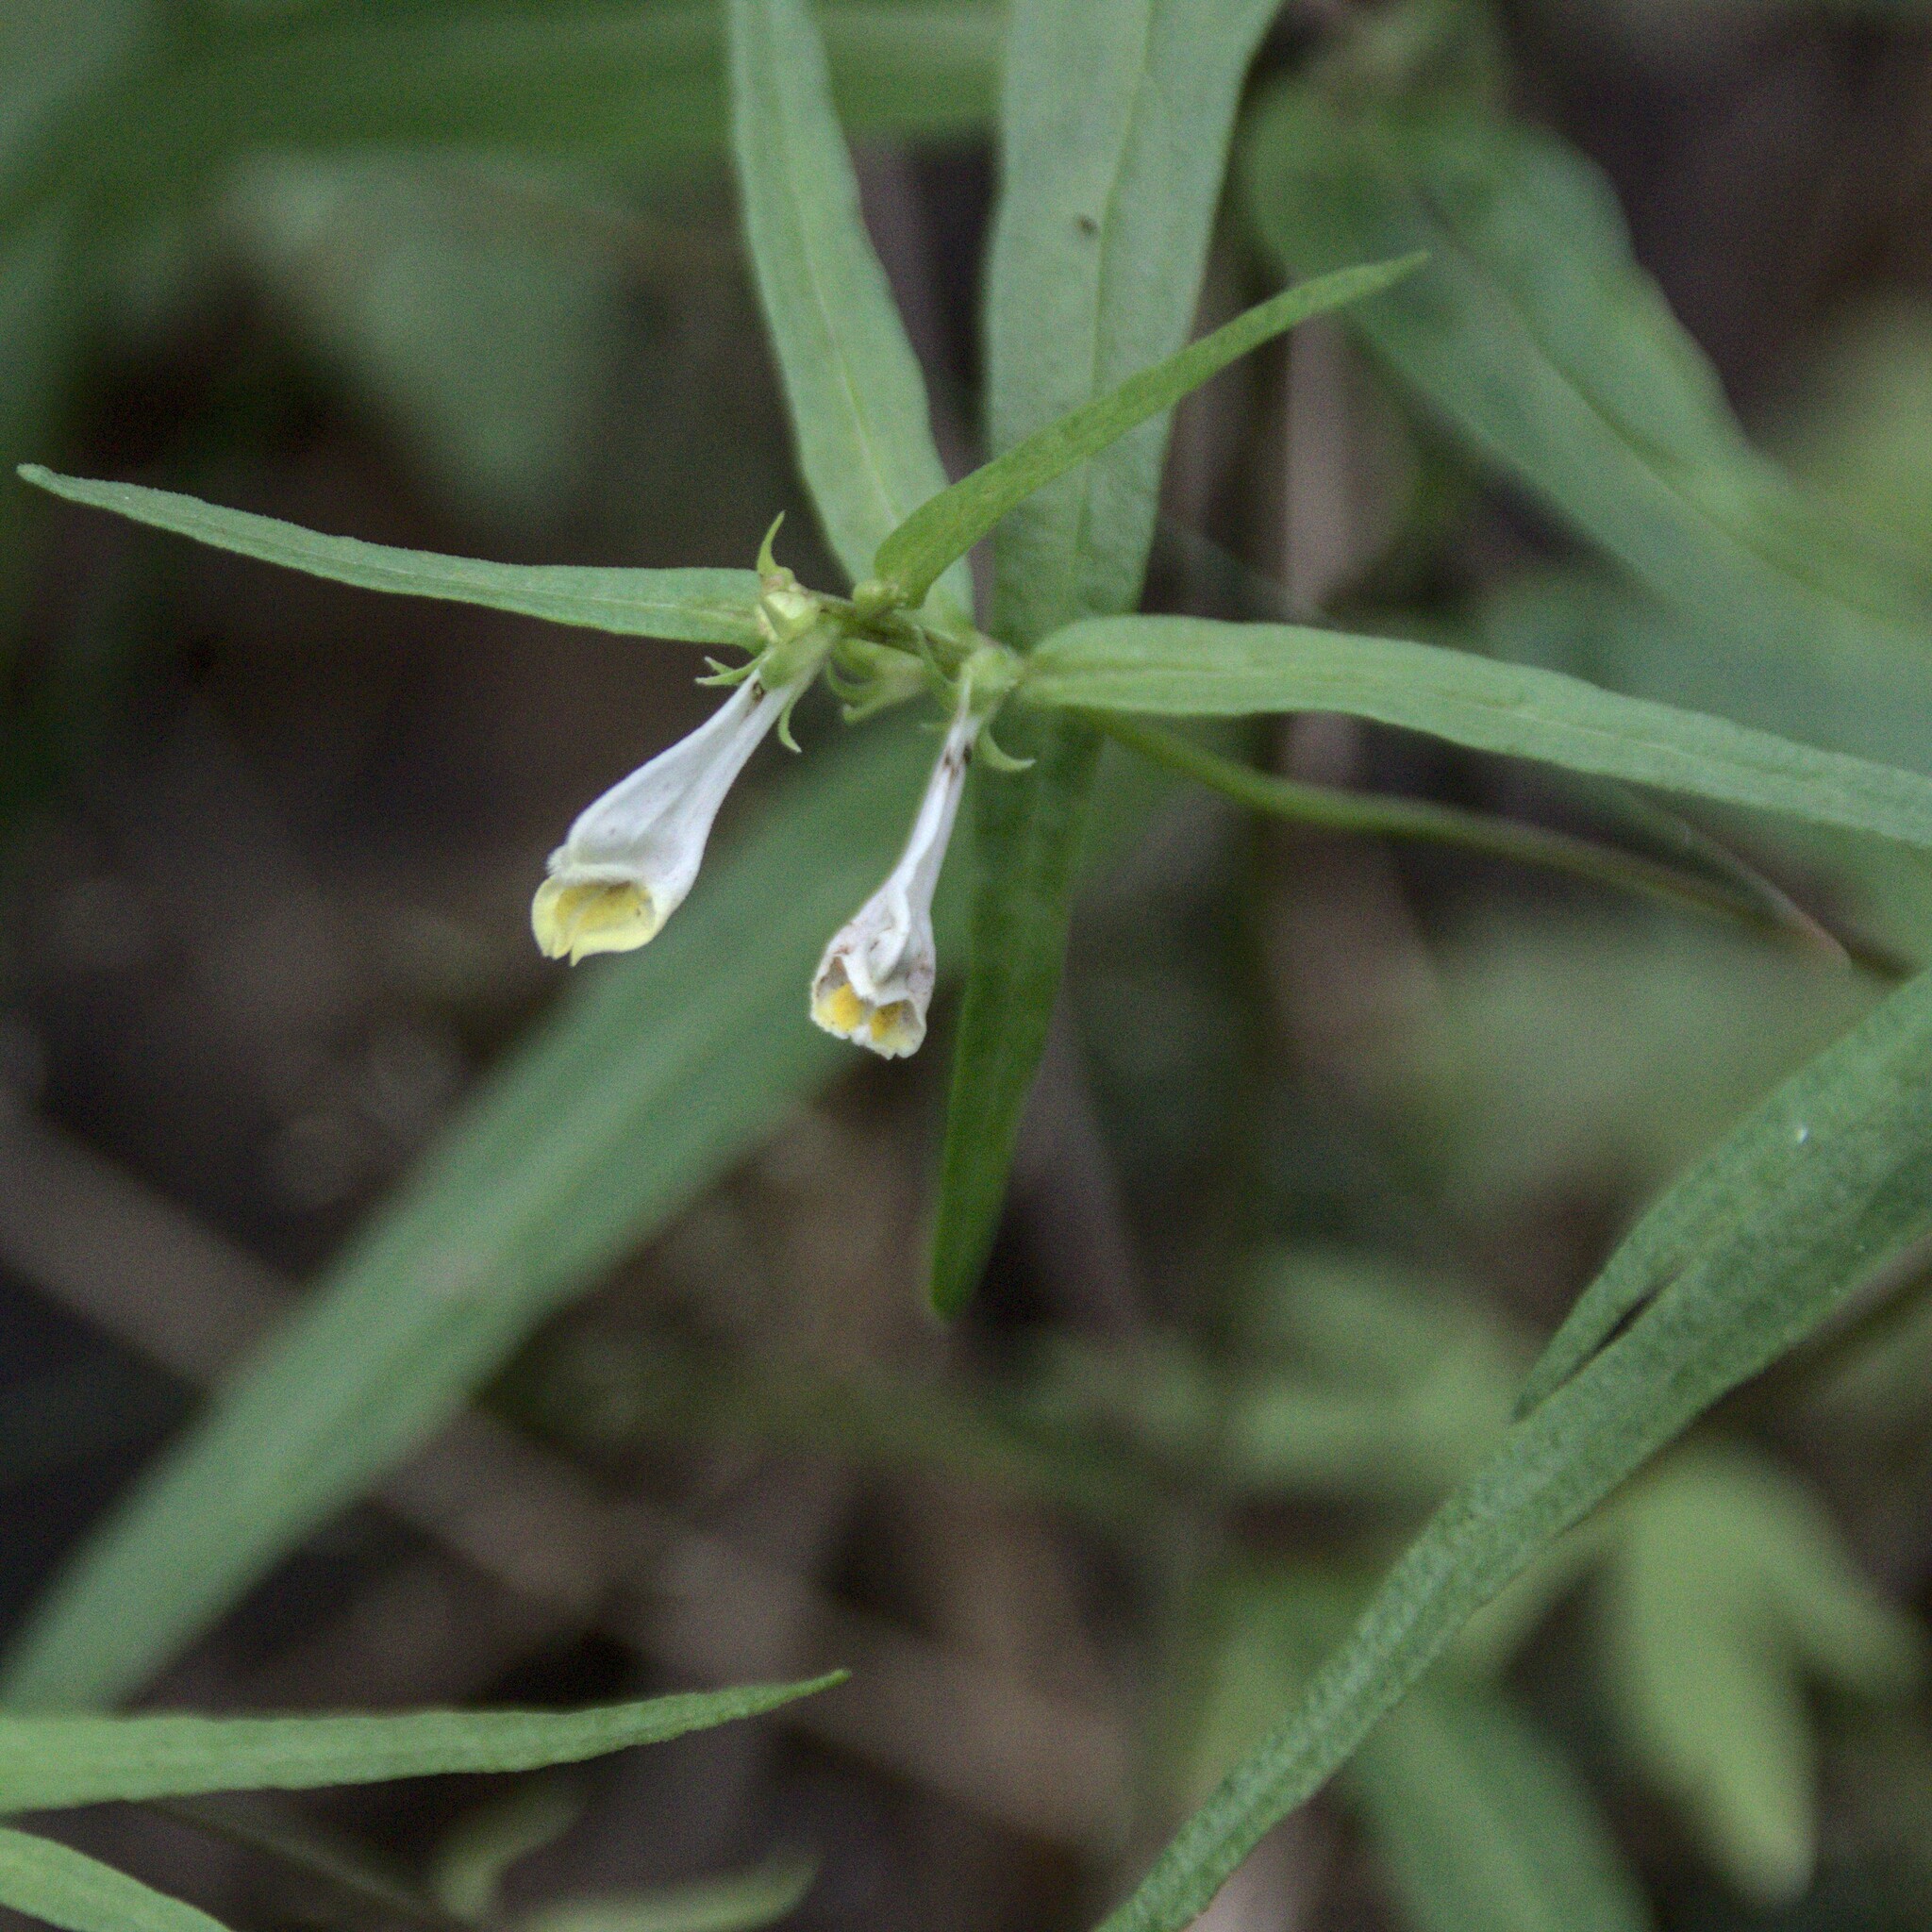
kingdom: Plantae
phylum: Tracheophyta
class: Magnoliopsida
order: Lamiales
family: Orobanchaceae
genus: Melampyrum
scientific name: Melampyrum pratense
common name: Common cow-wheat
